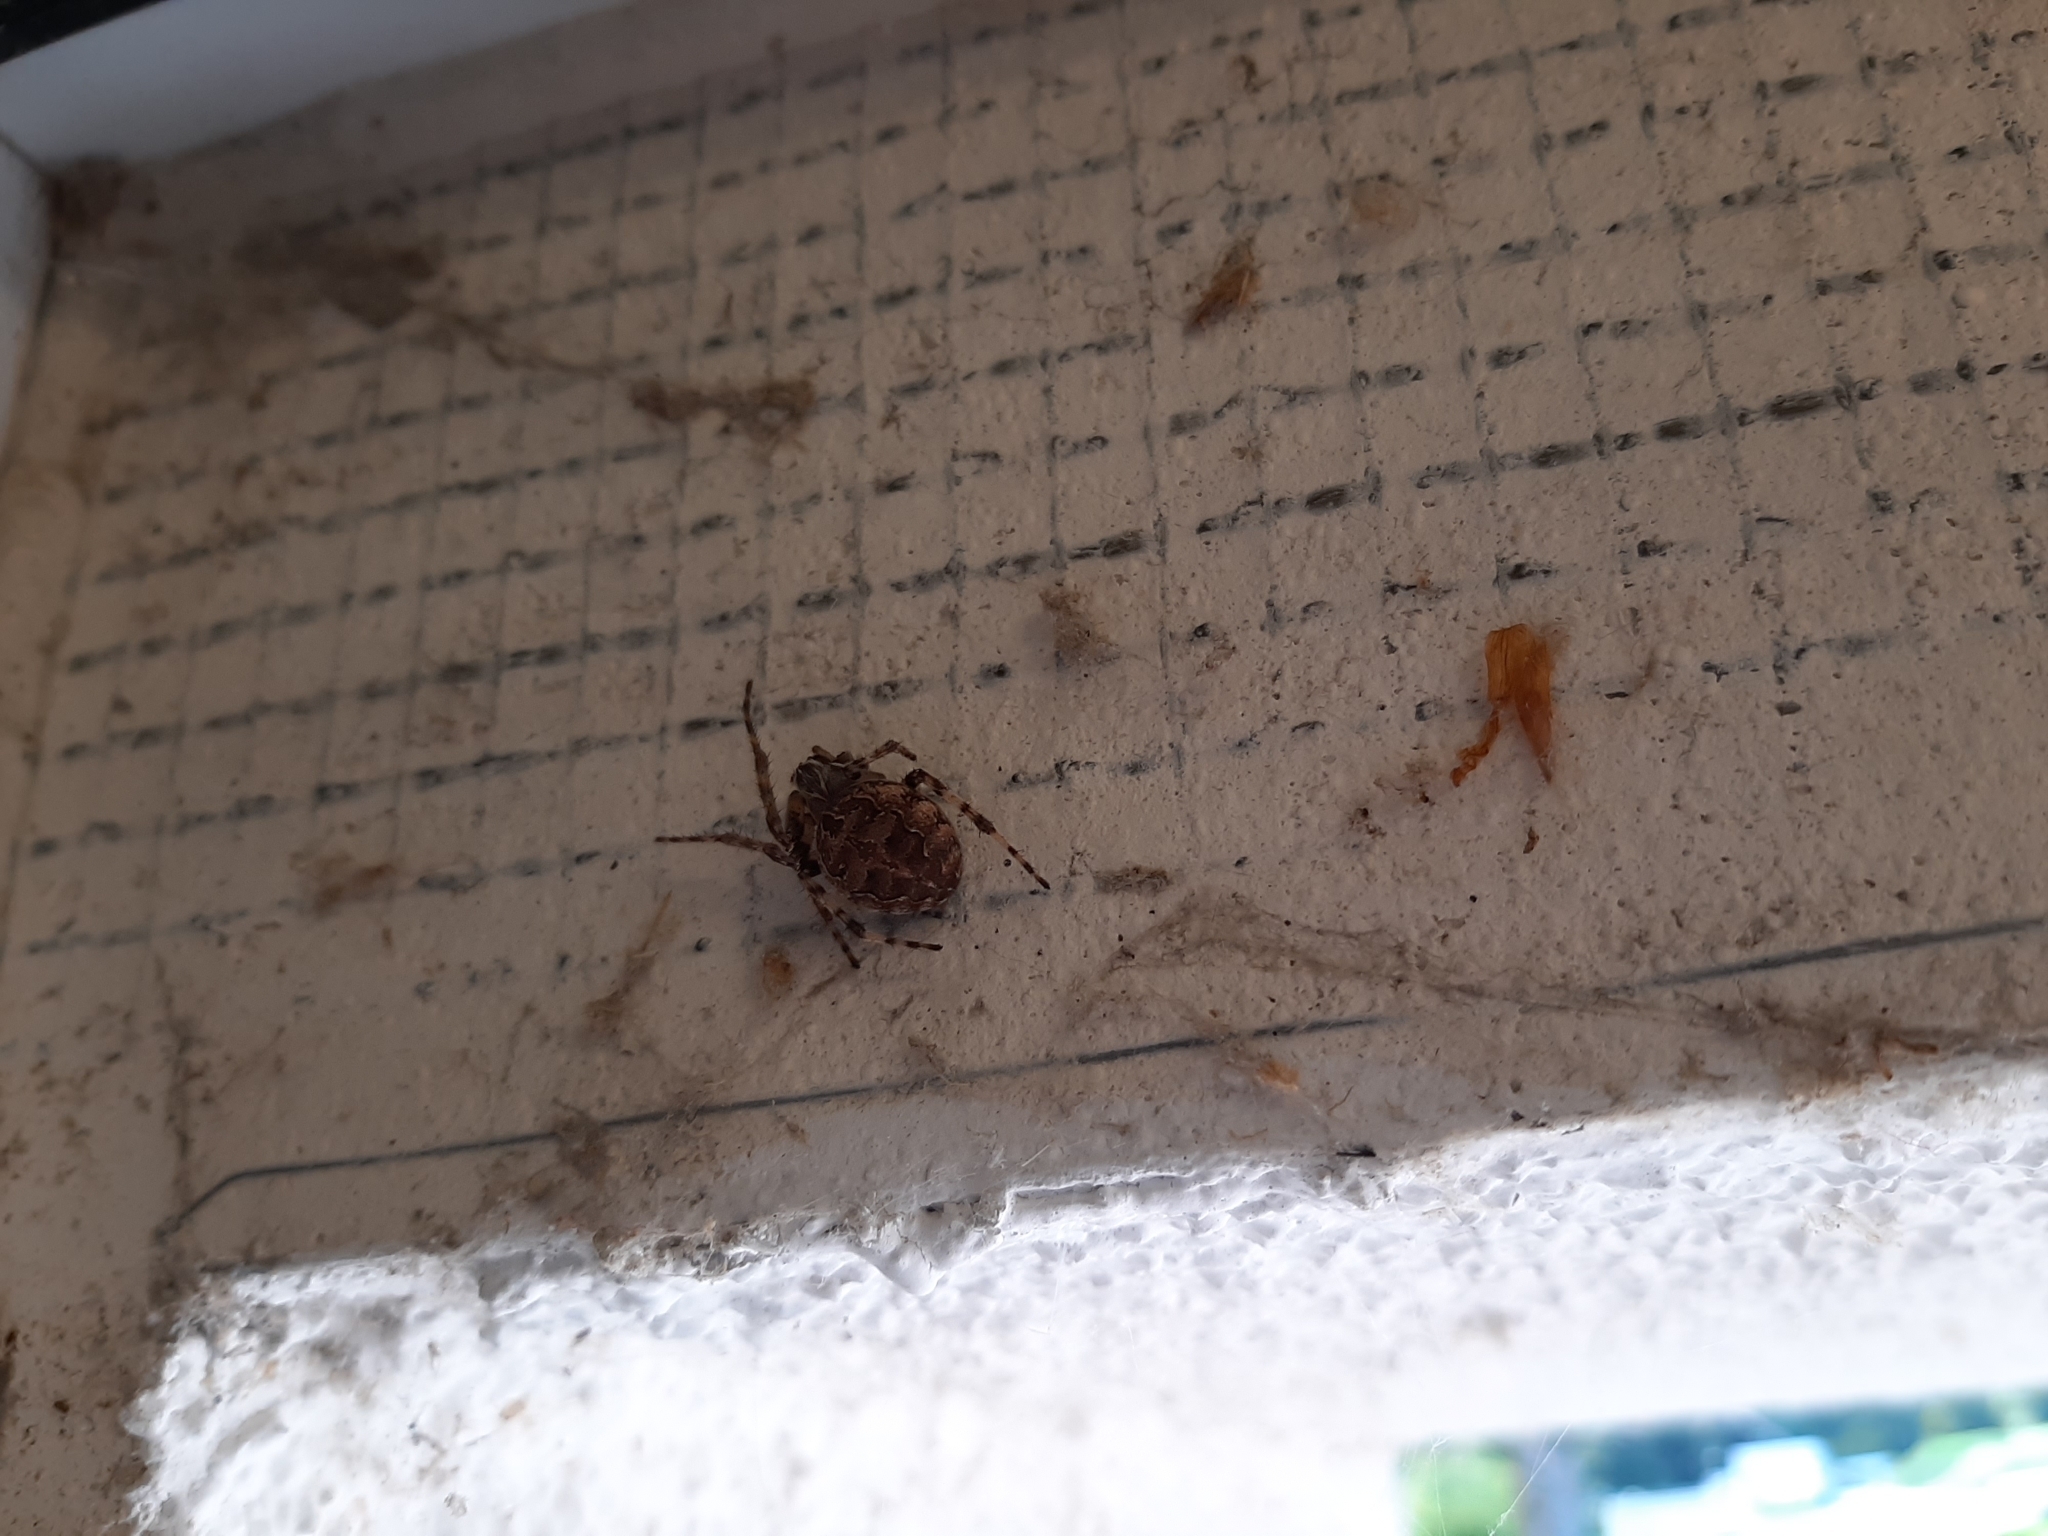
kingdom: Animalia
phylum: Arthropoda
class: Arachnida
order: Araneae
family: Araneidae
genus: Larinioides
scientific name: Larinioides sclopetarius
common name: Bridge orbweaver
